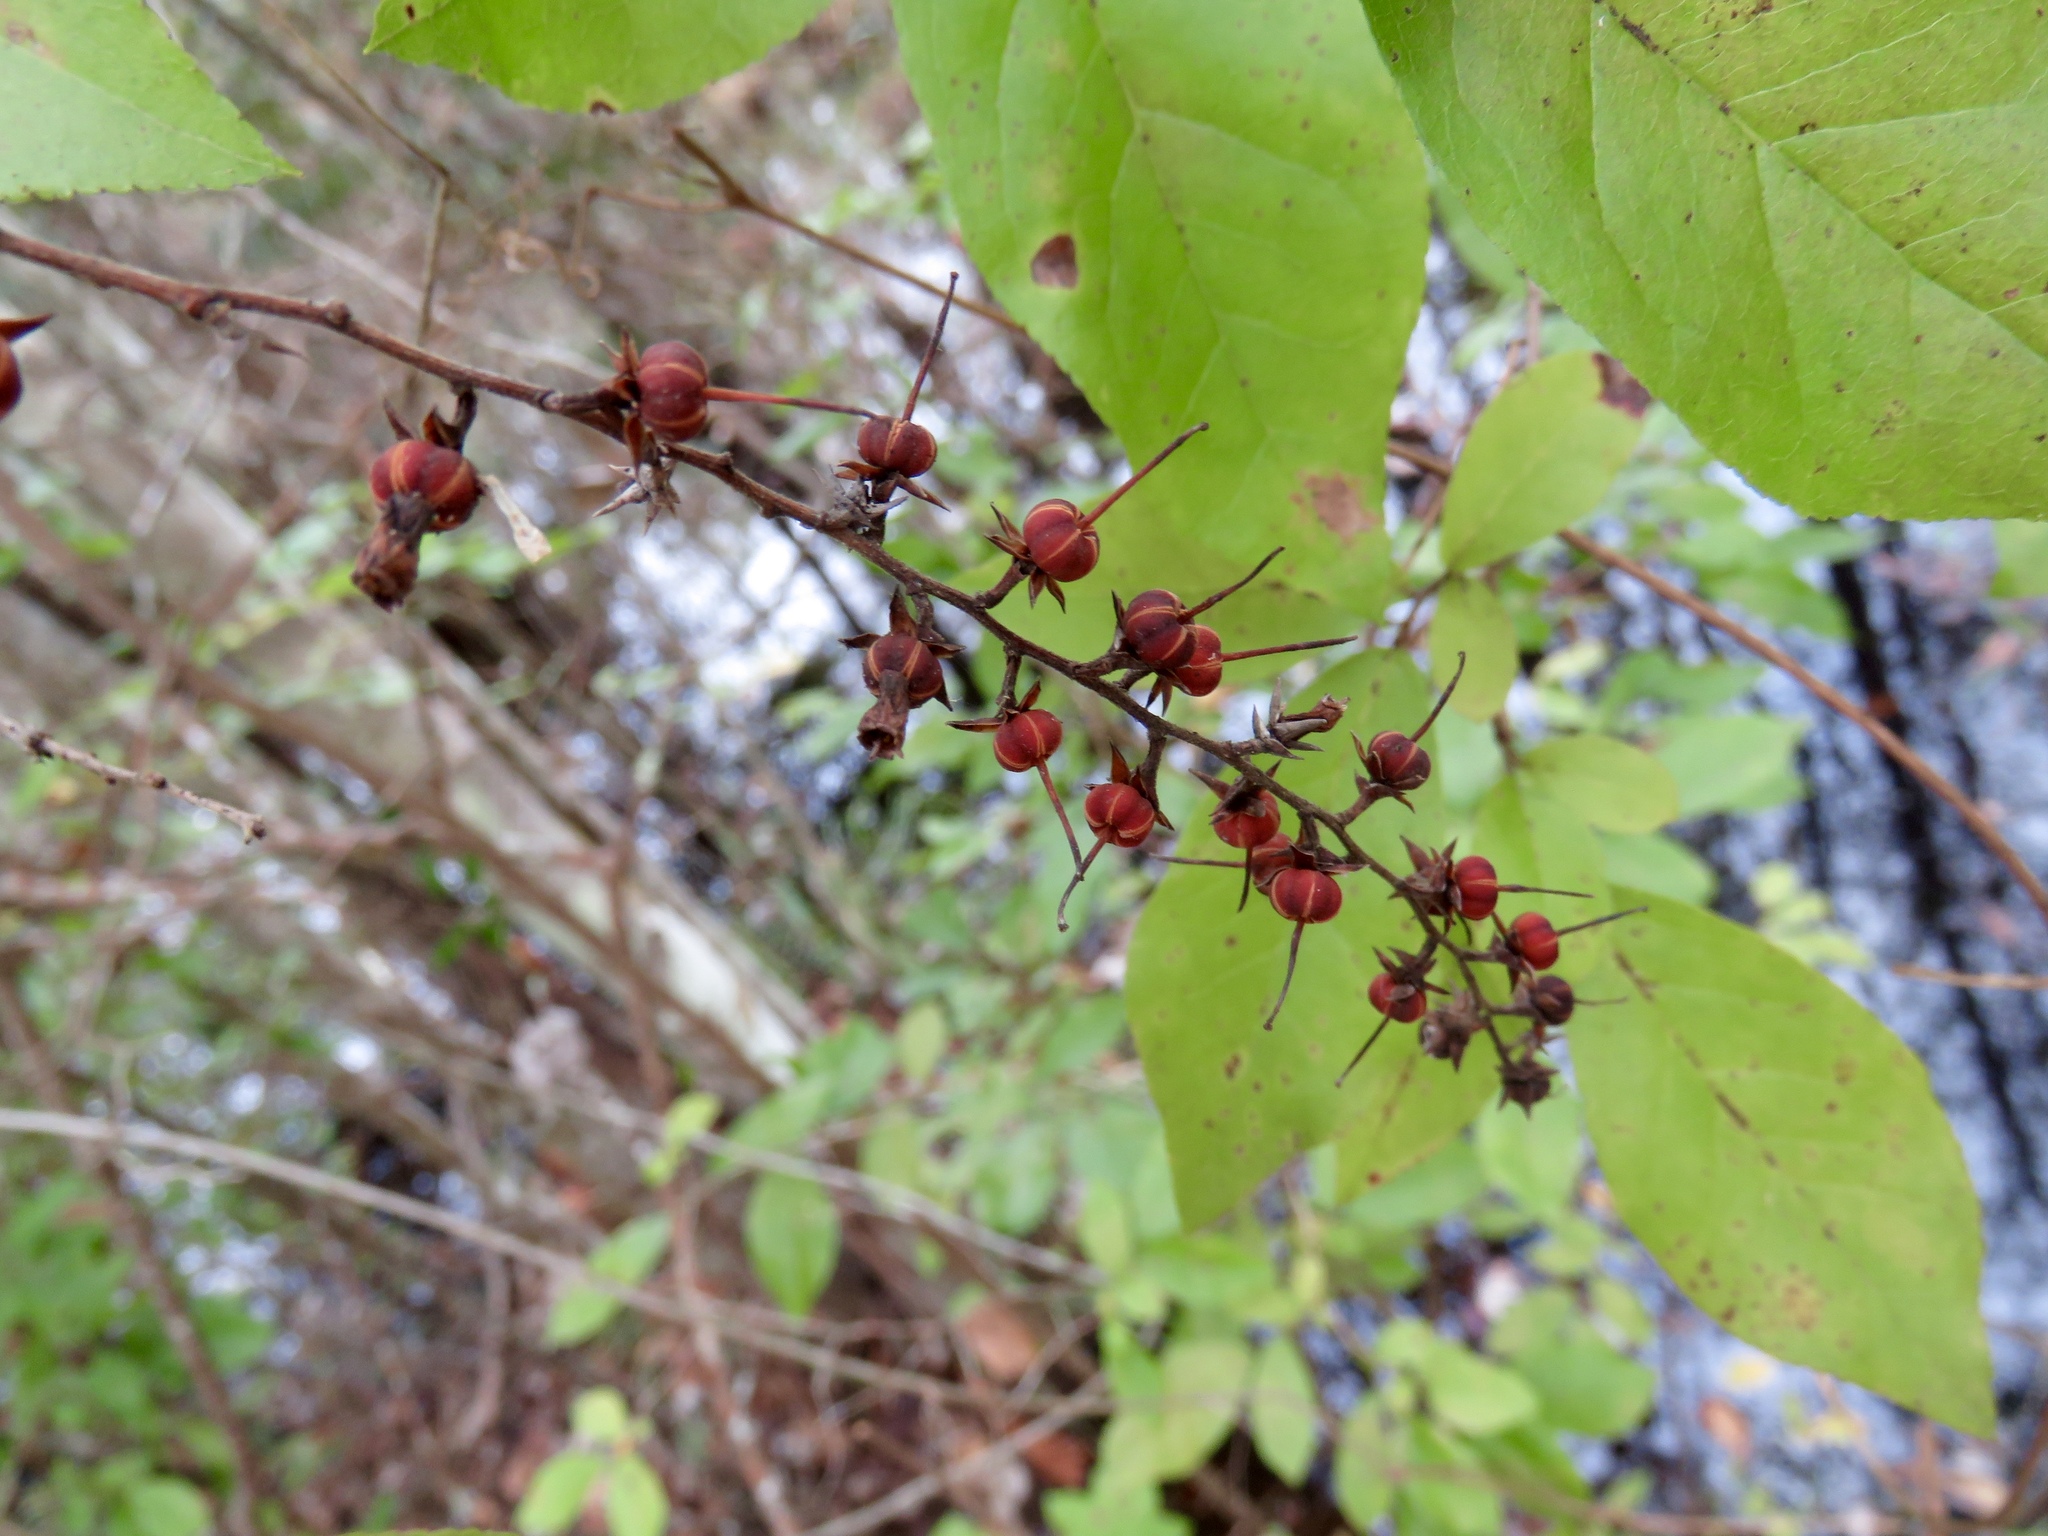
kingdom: Plantae
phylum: Tracheophyta
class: Magnoliopsida
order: Ericales
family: Ericaceae
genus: Eubotrys
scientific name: Eubotrys racemosa
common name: Fetterbush
